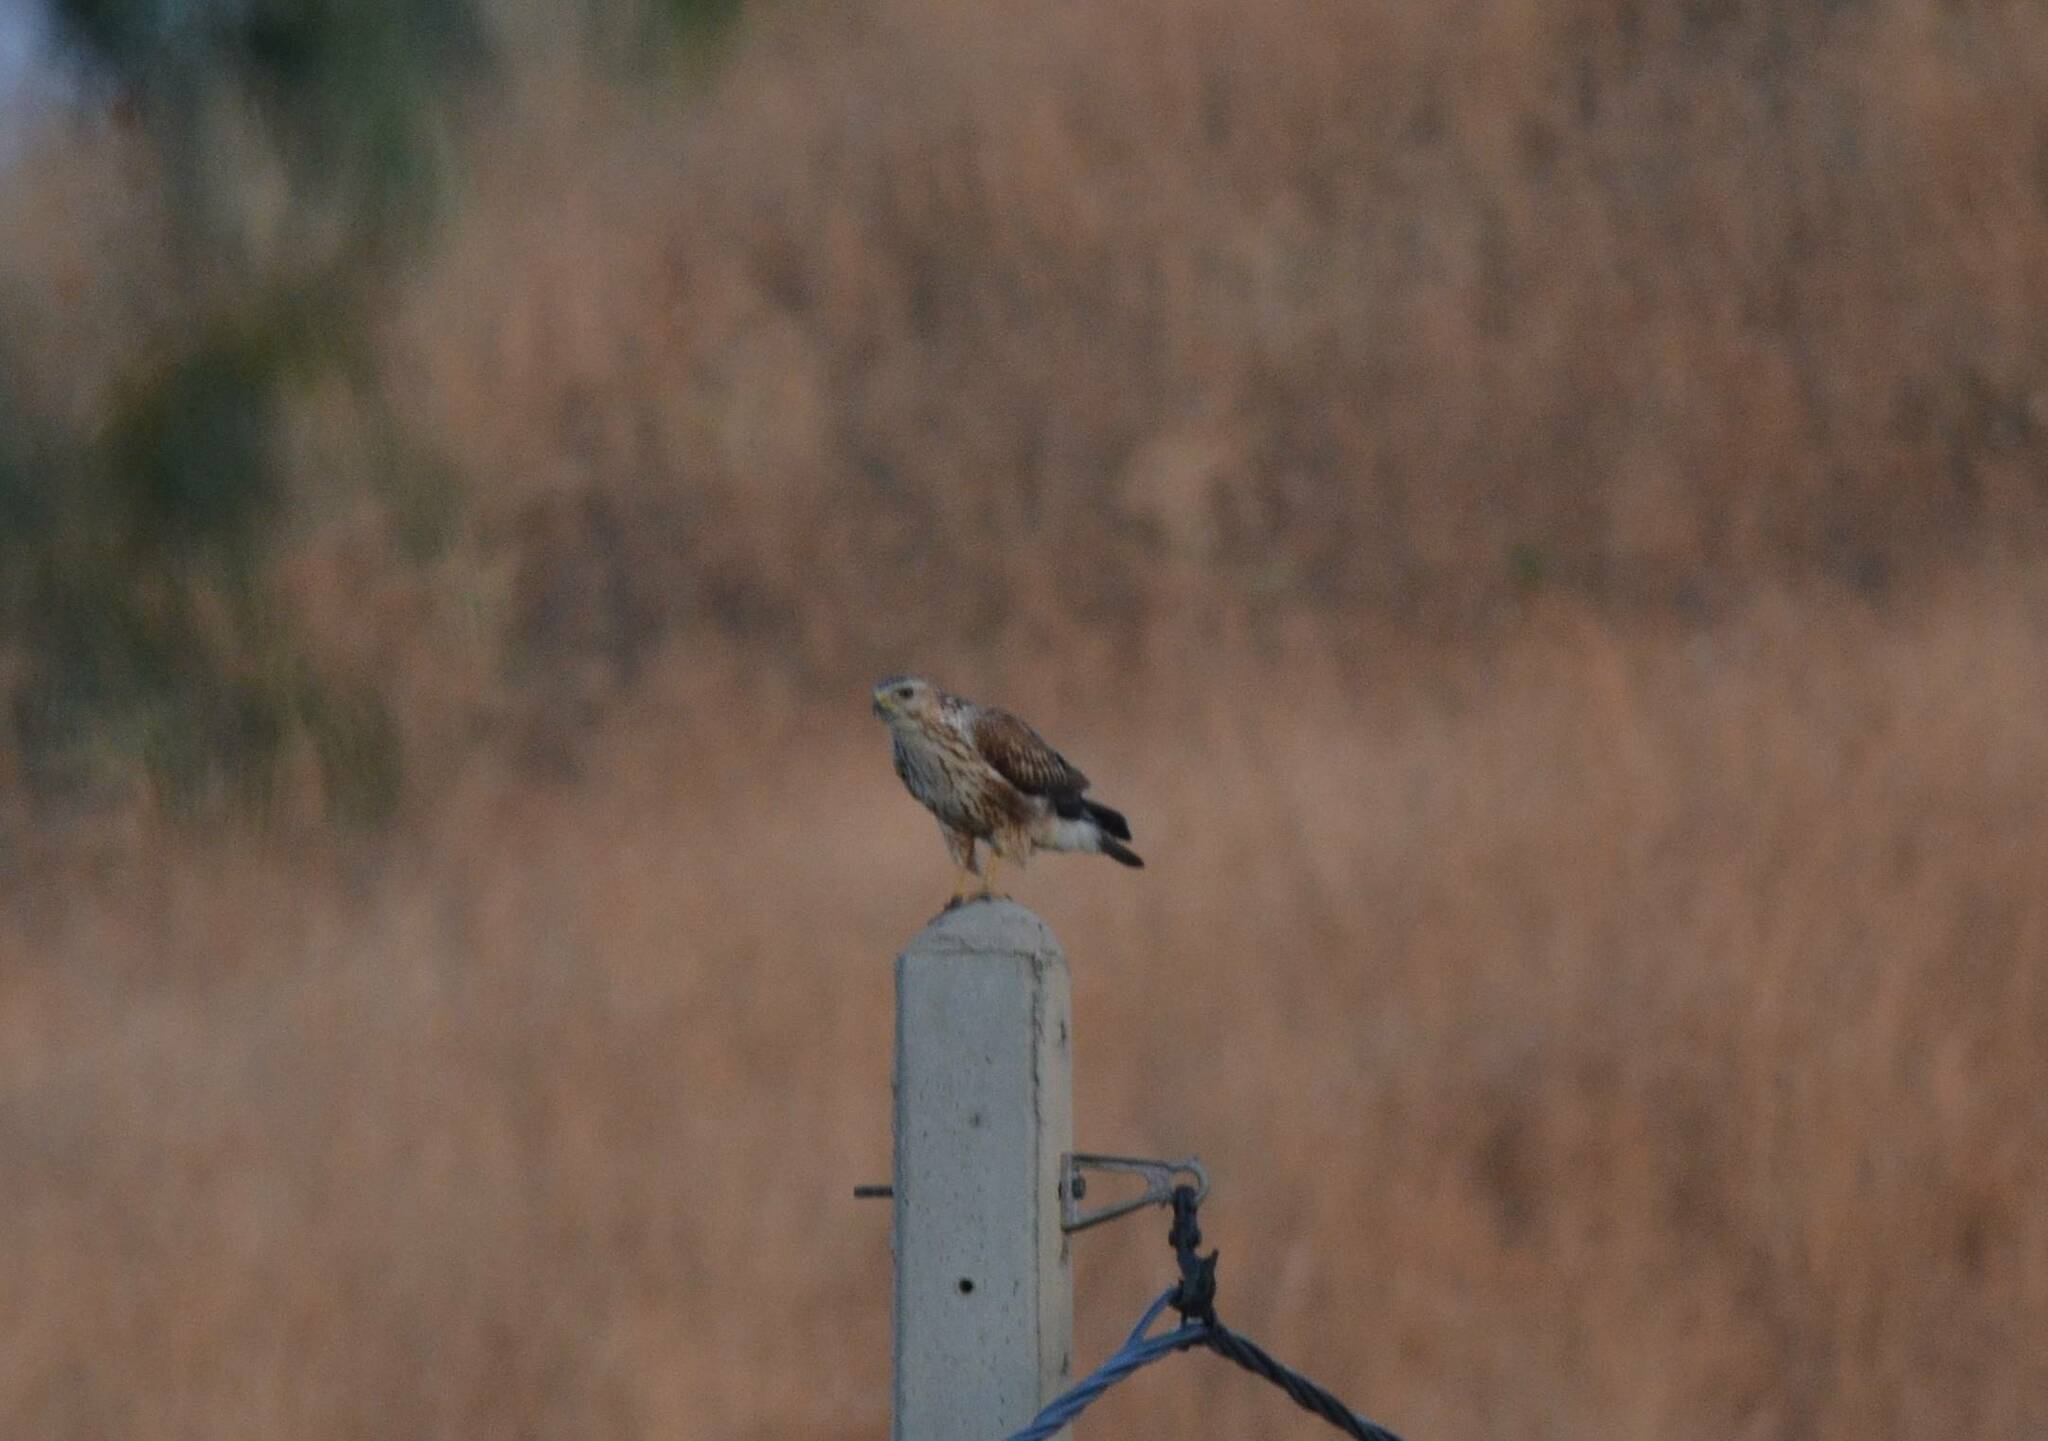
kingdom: Animalia
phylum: Chordata
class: Aves
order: Accipitriformes
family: Accipitridae
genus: Buteo
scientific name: Buteo rufinus
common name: Long-legged buzzard
